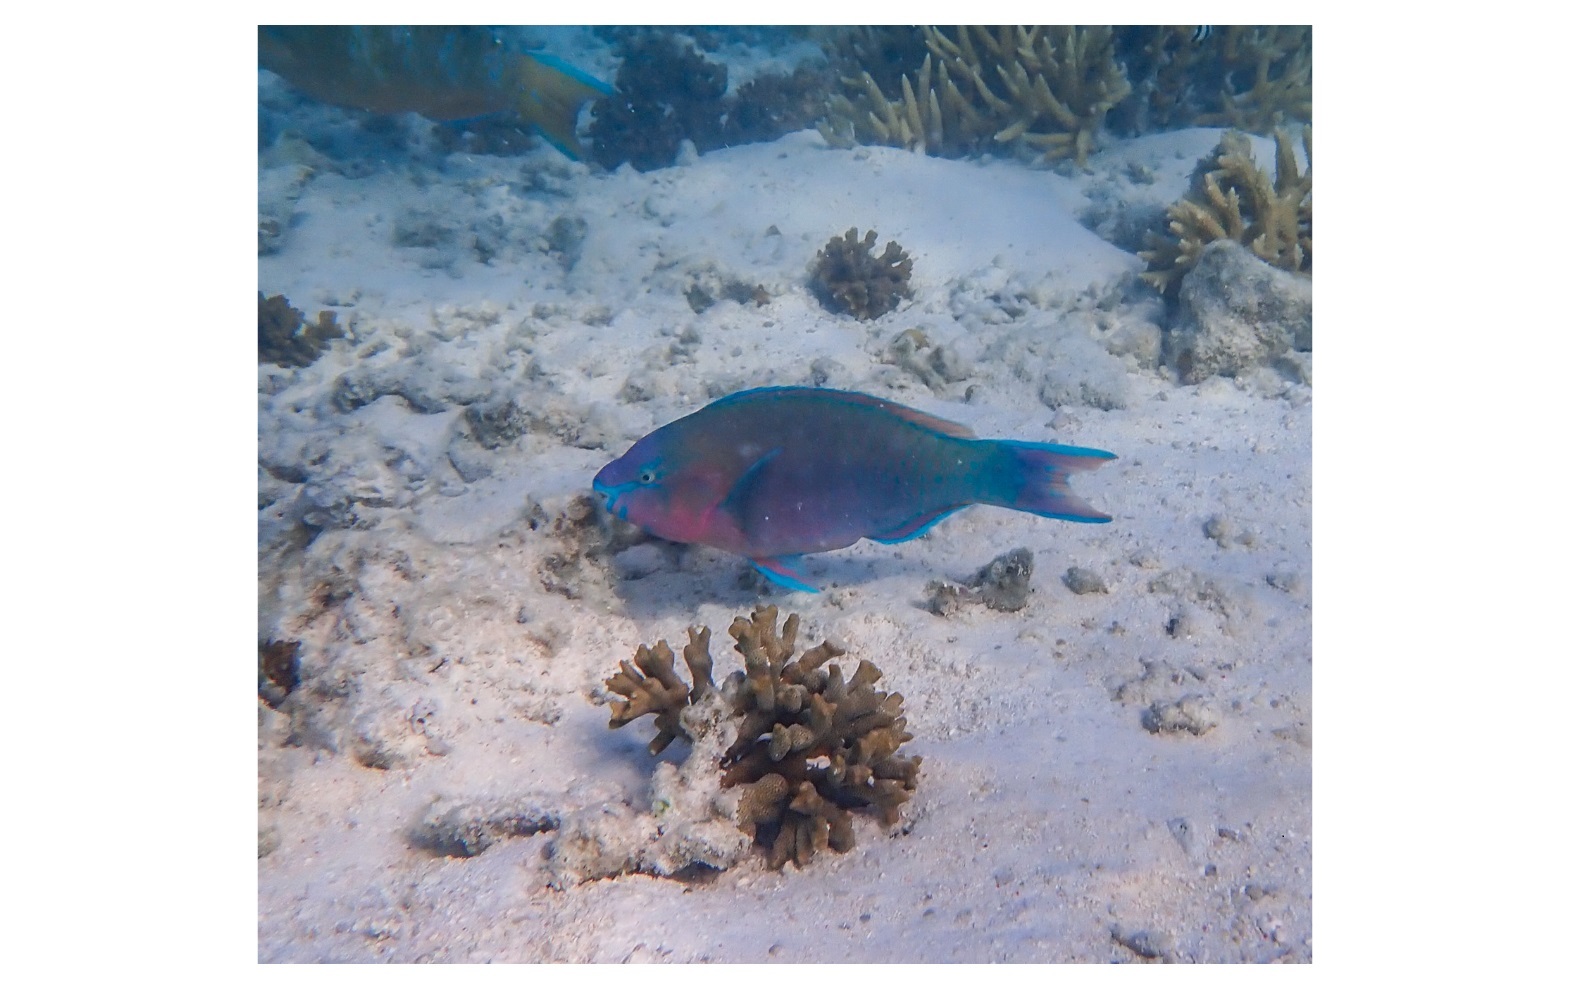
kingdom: Animalia
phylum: Chordata
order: Perciformes
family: Scaridae
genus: Scarus
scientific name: Scarus psittacus
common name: Palenose parrotfish
